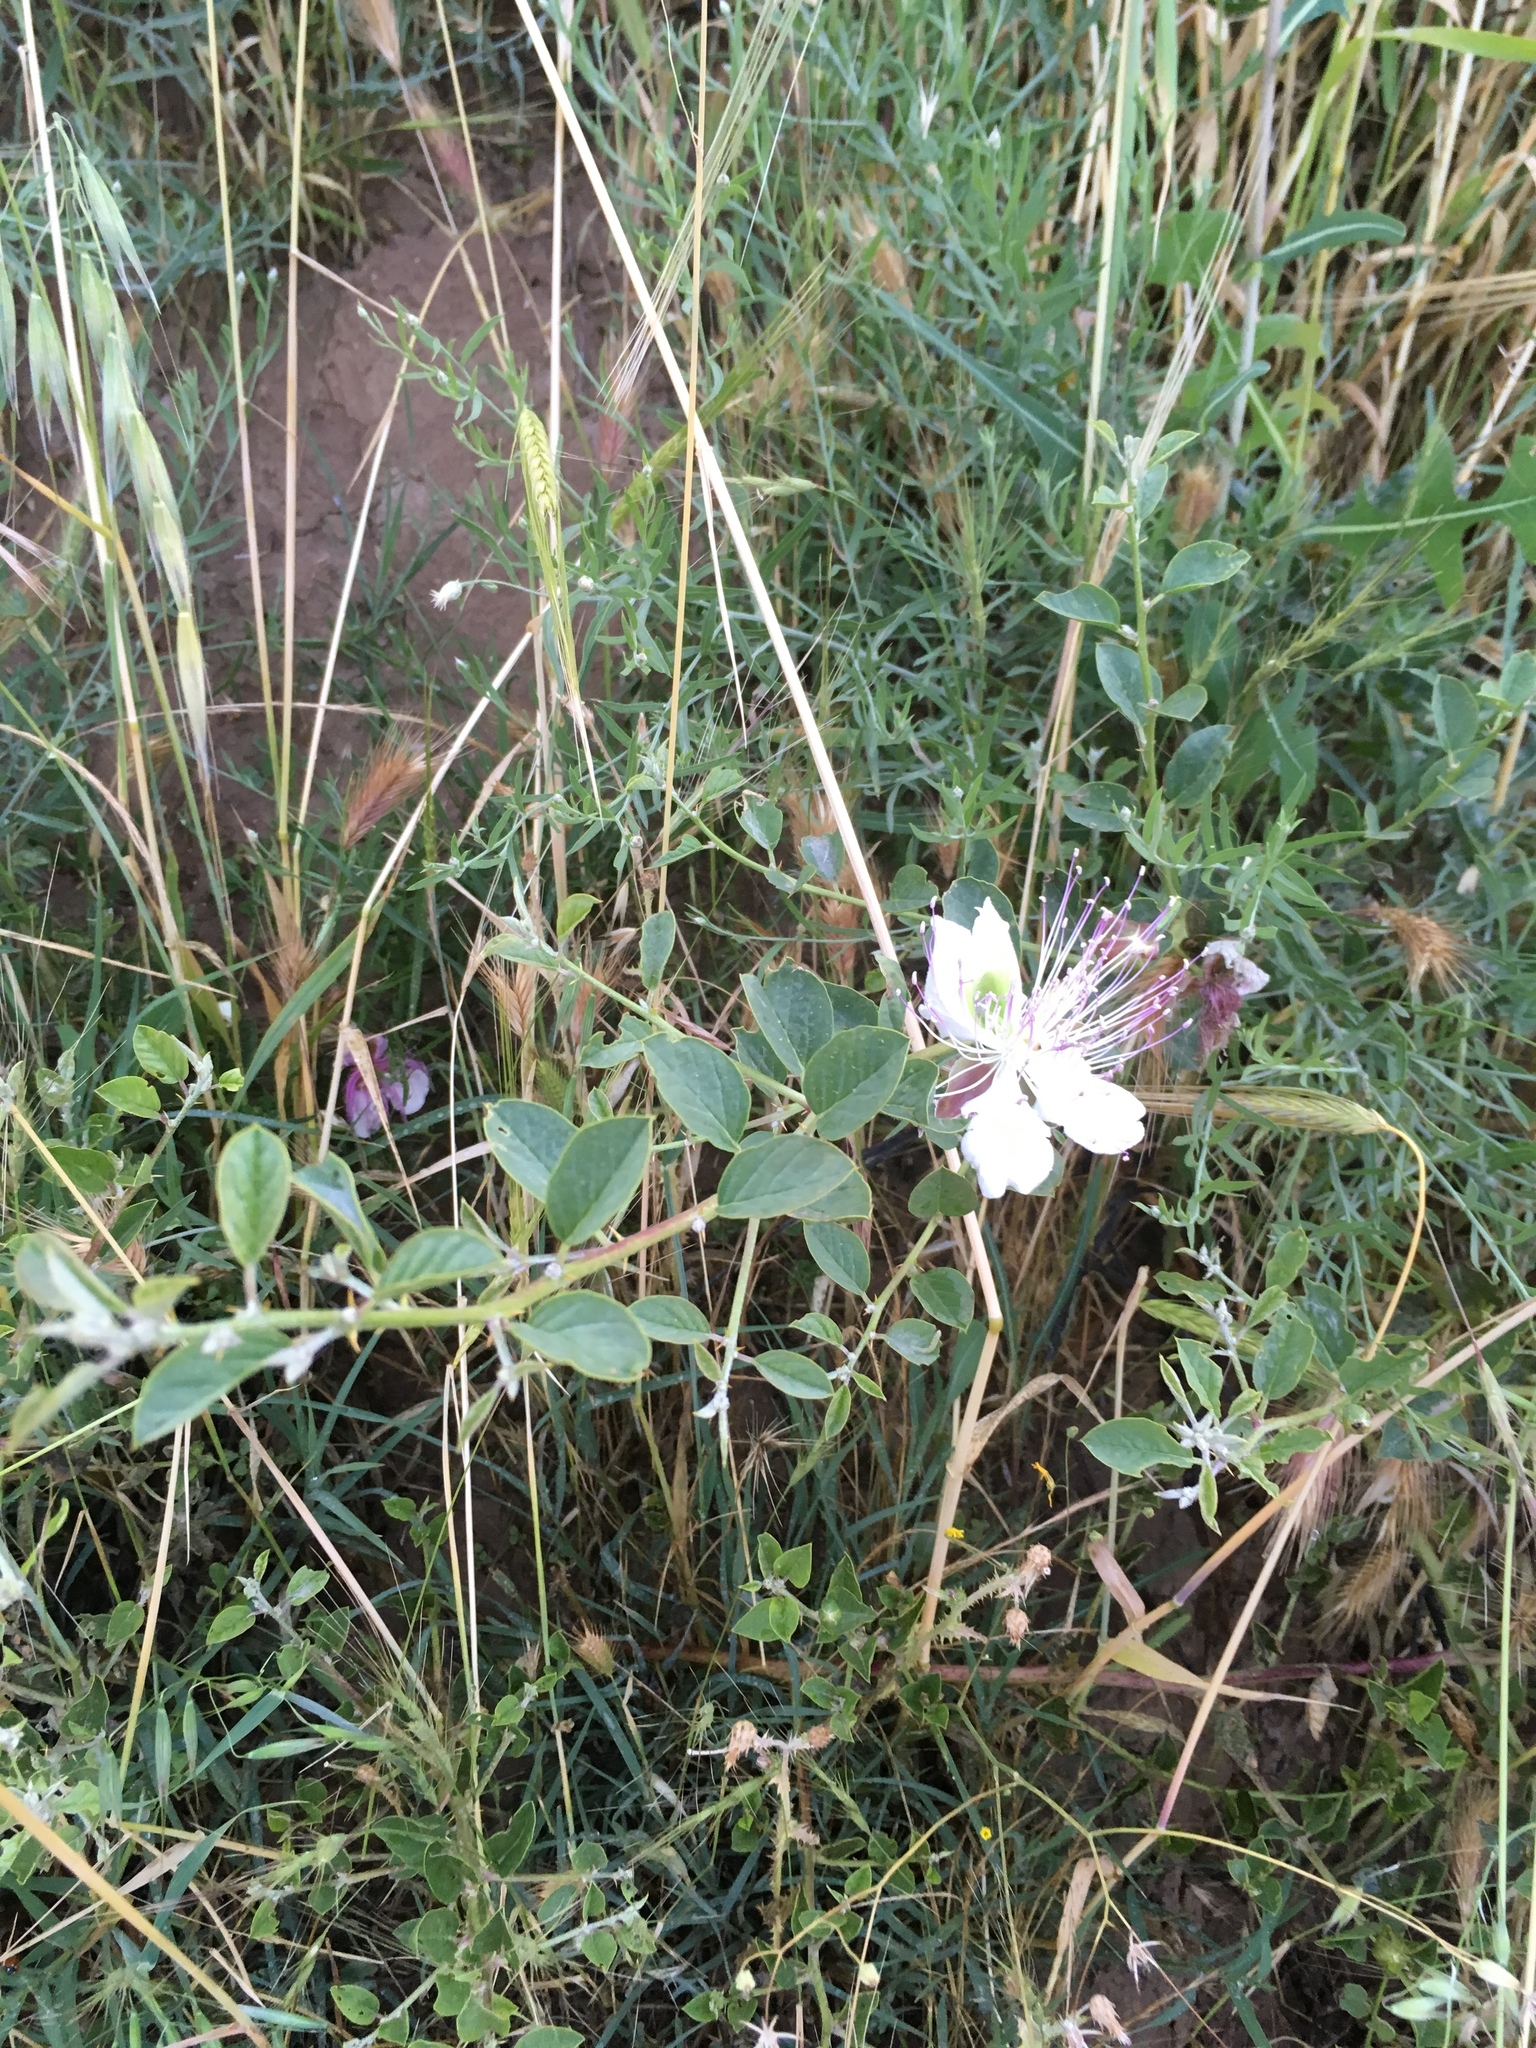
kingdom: Plantae
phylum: Tracheophyta
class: Magnoliopsida
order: Brassicales
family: Capparaceae
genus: Capparis
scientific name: Capparis spinosa
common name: Caper
